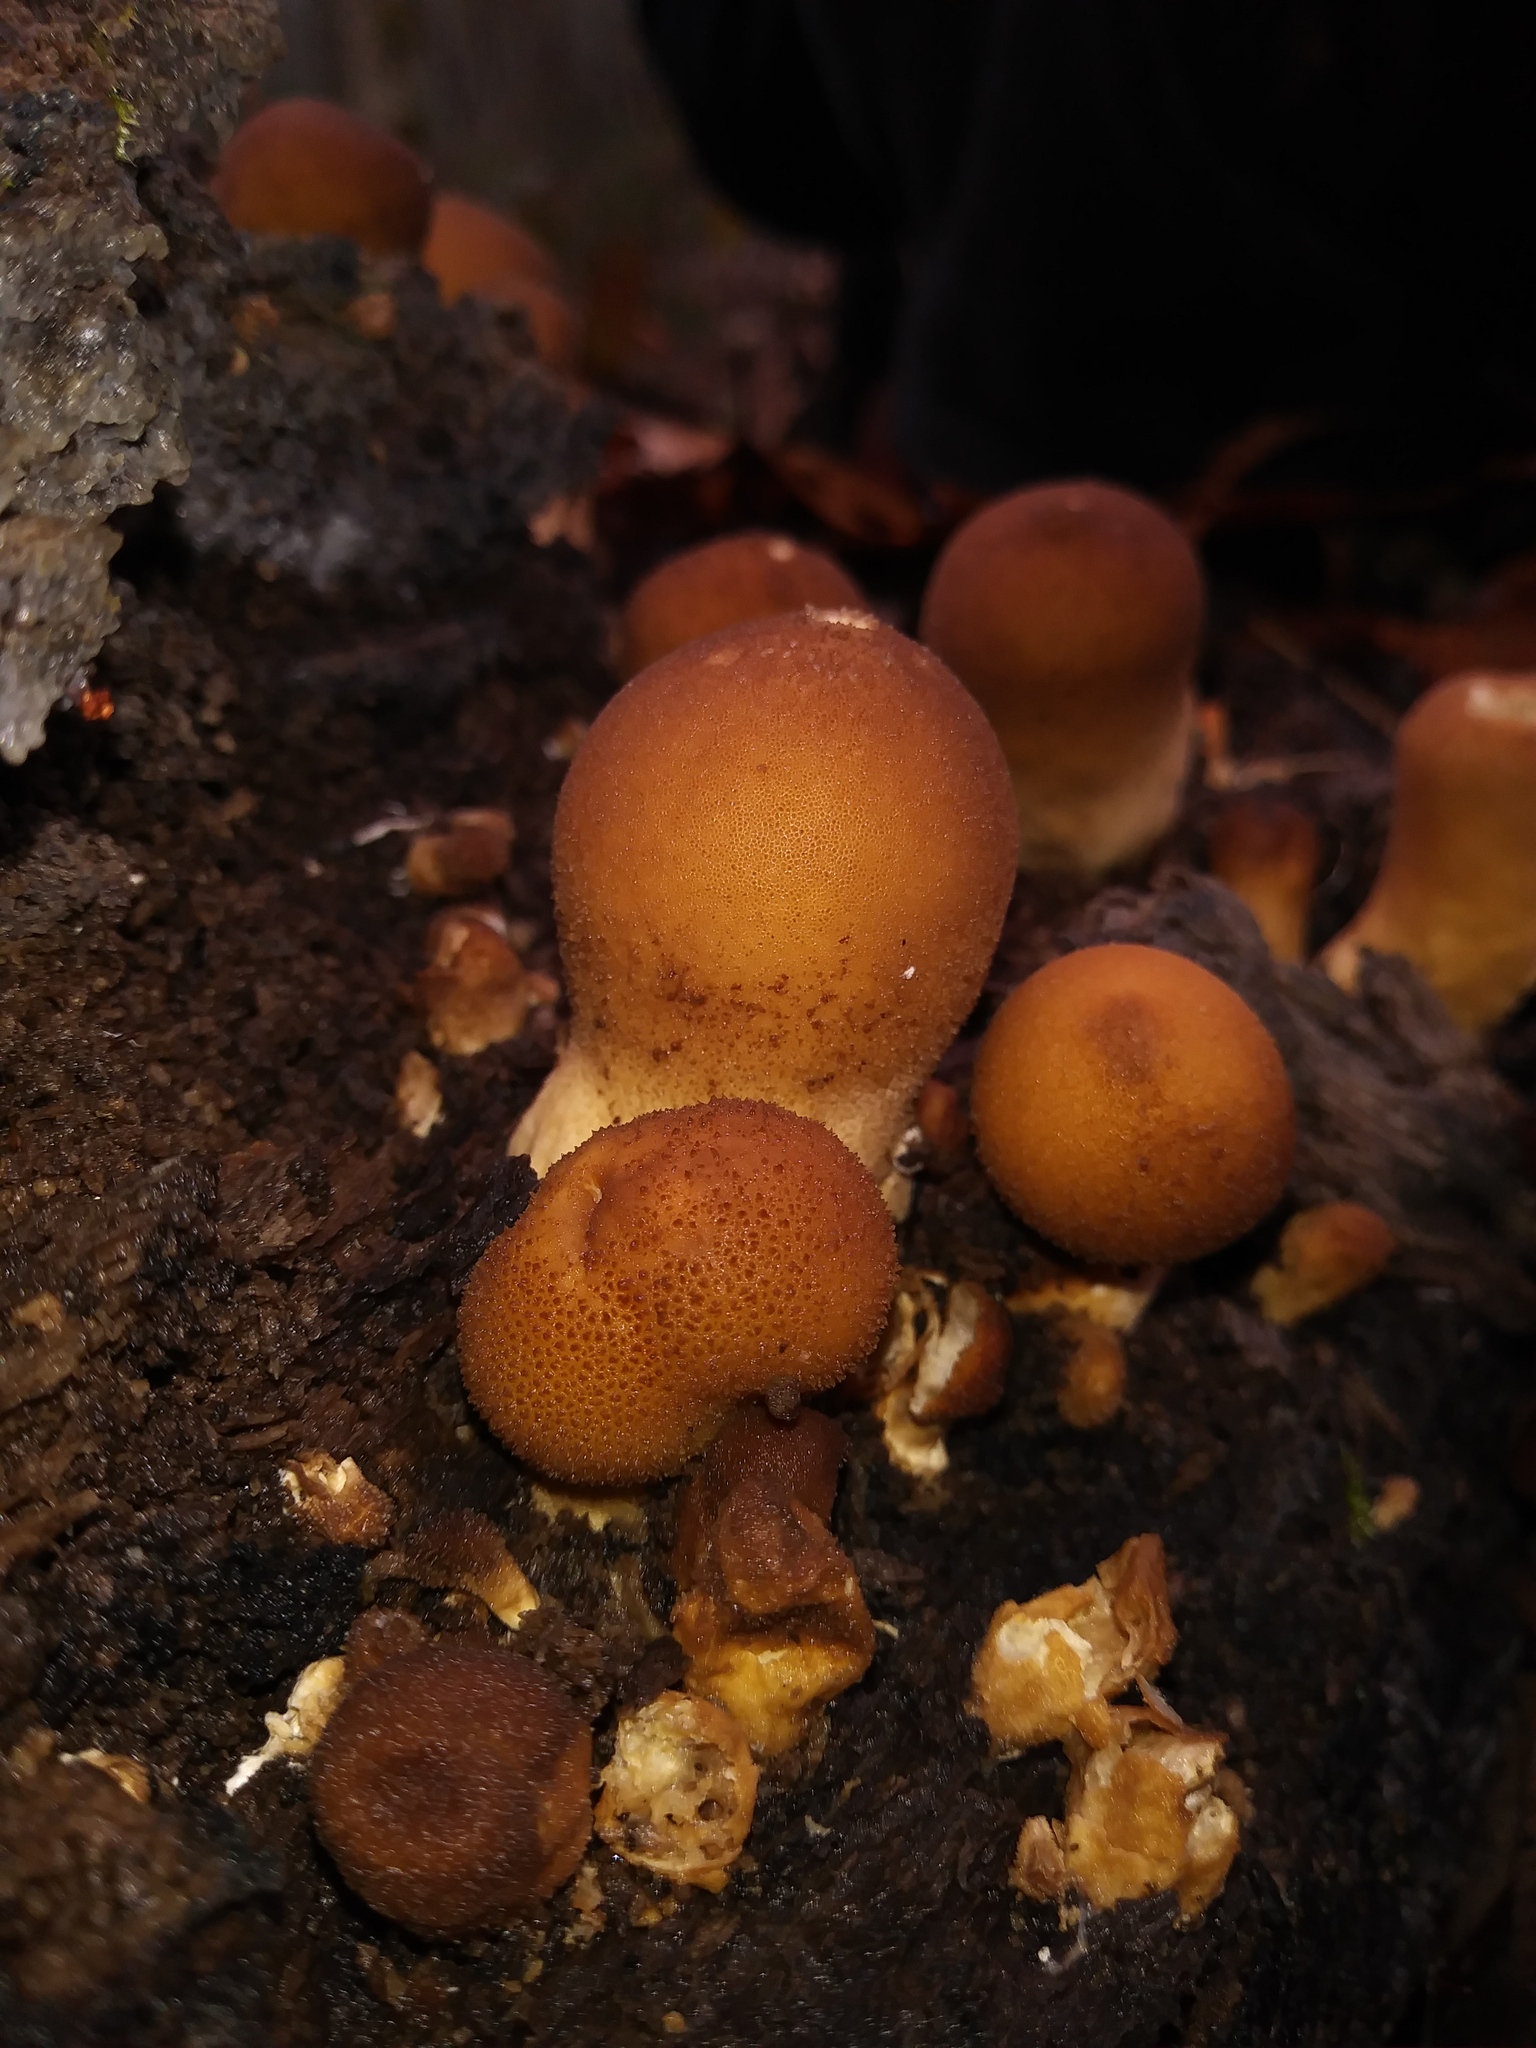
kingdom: Fungi
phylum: Basidiomycota
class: Agaricomycetes
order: Agaricales
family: Lycoperdaceae
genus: Apioperdon
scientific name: Apioperdon pyriforme
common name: Pear-shaped puffball
